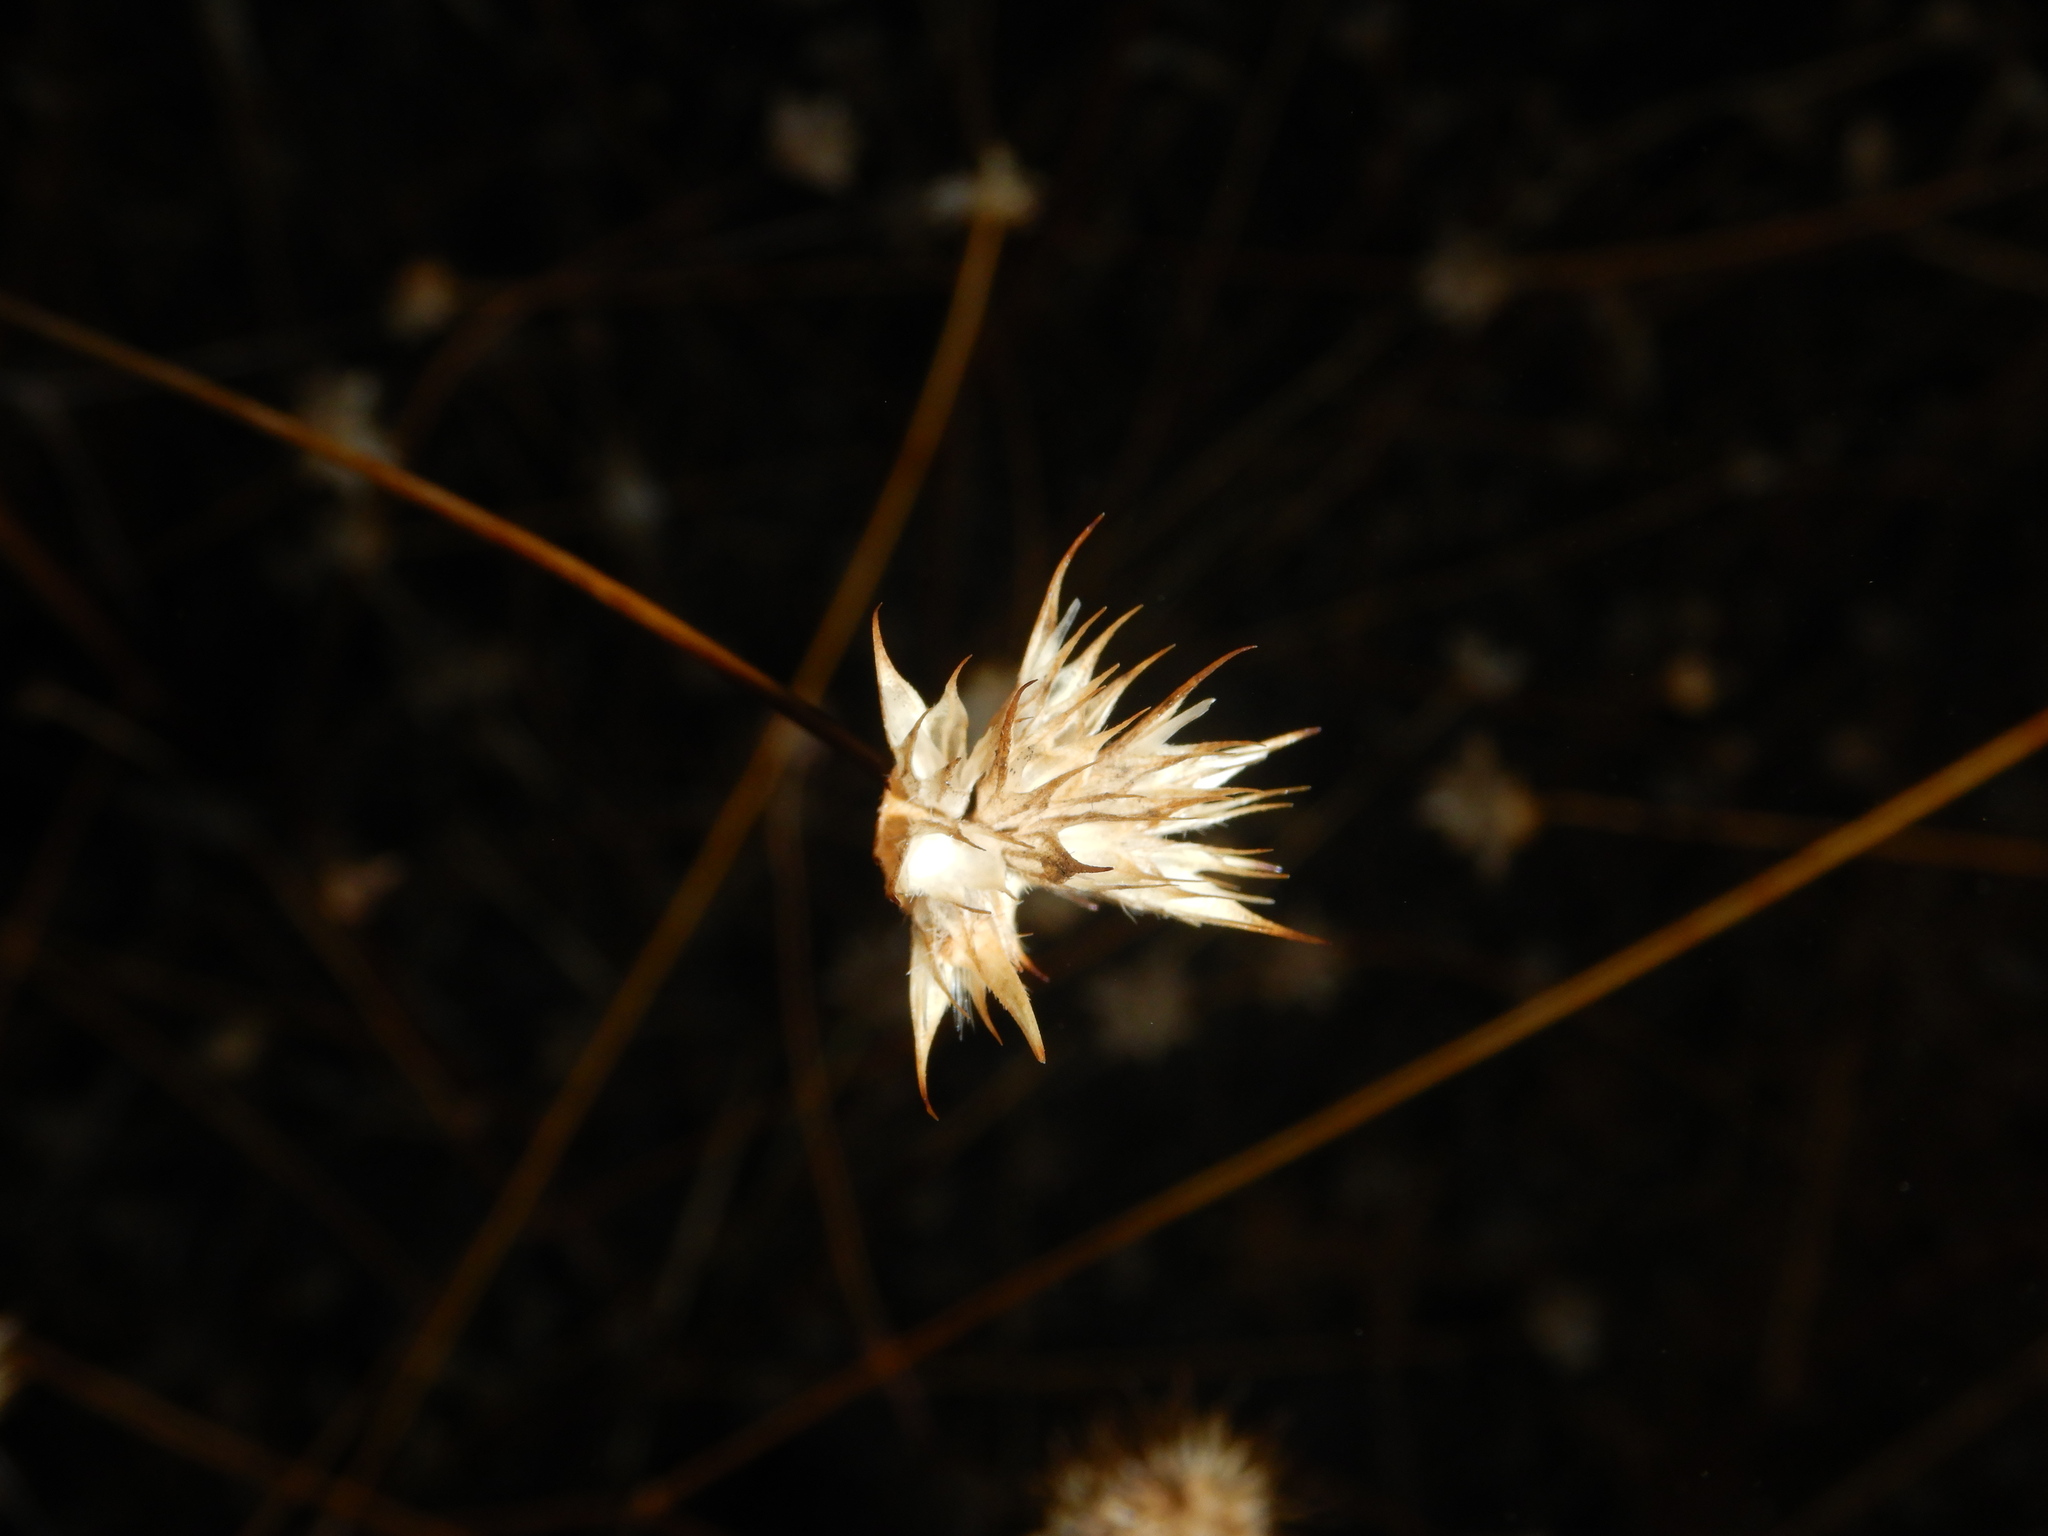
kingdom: Plantae
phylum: Tracheophyta
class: Magnoliopsida
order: Fabales
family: Fabaceae
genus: Bituminaria
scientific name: Bituminaria bituminosa
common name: Arabian pea
